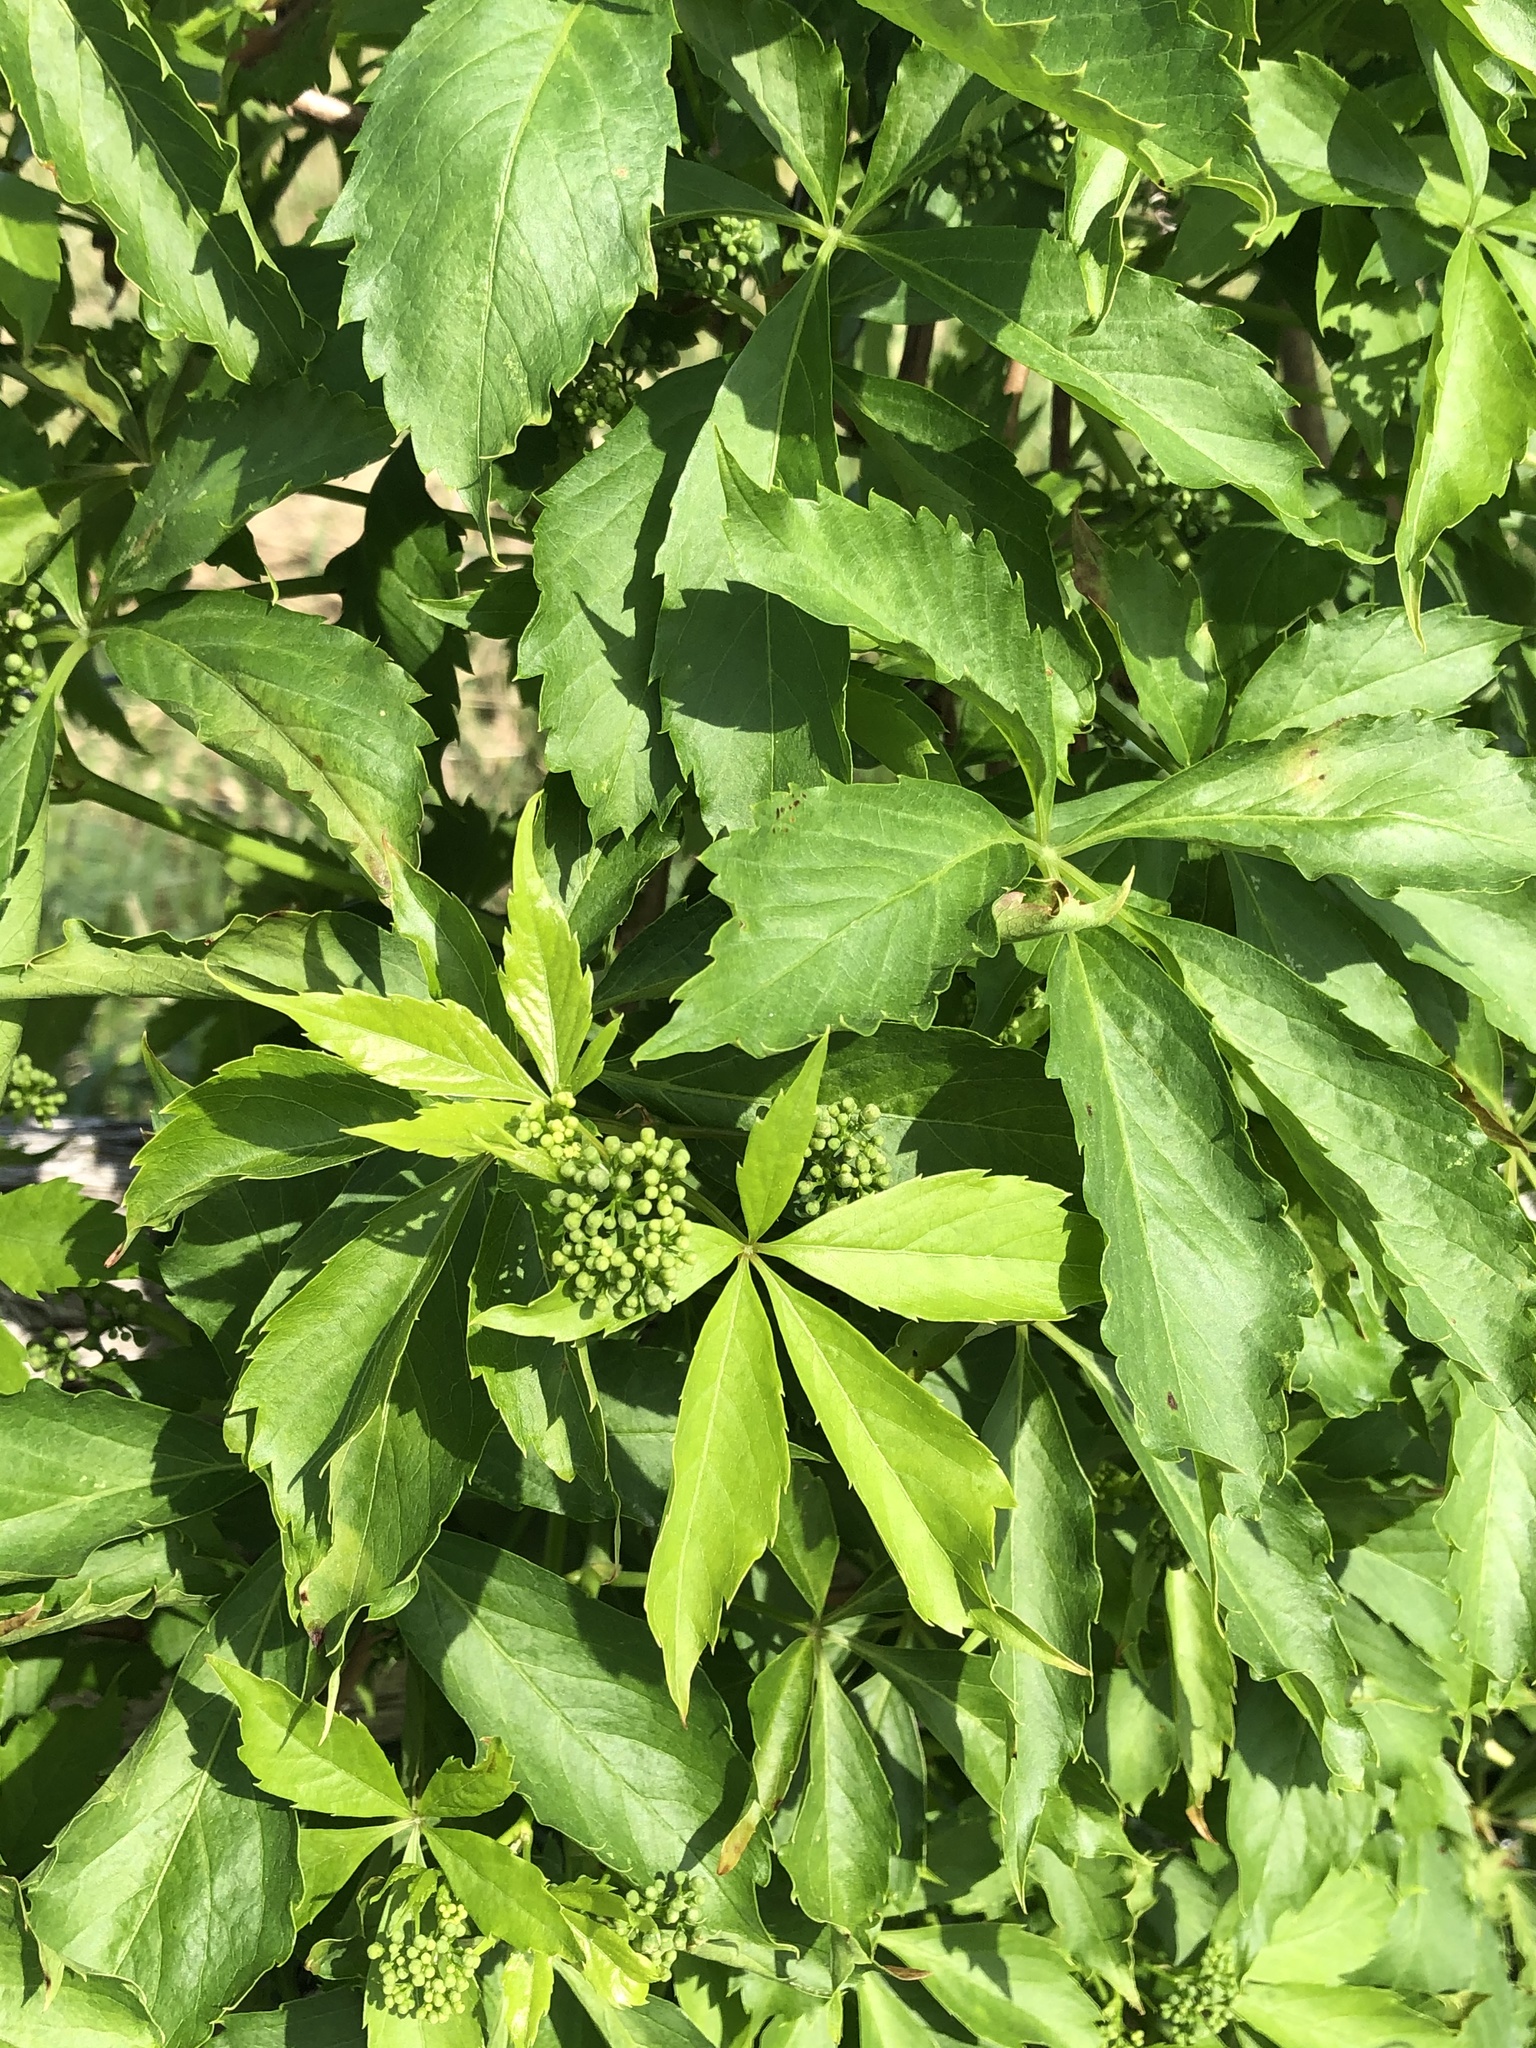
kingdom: Plantae
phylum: Tracheophyta
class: Magnoliopsida
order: Vitales
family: Vitaceae
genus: Parthenocissus
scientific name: Parthenocissus inserta
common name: False virginia-creeper
